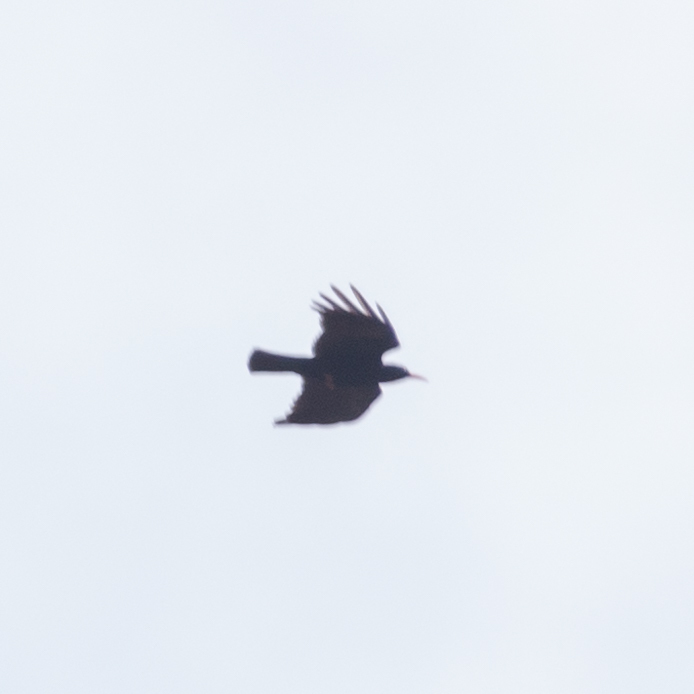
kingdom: Animalia
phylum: Chordata
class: Aves
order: Passeriformes
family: Corvidae
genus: Pyrrhocorax
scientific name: Pyrrhocorax pyrrhocorax
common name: Red-billed chough
